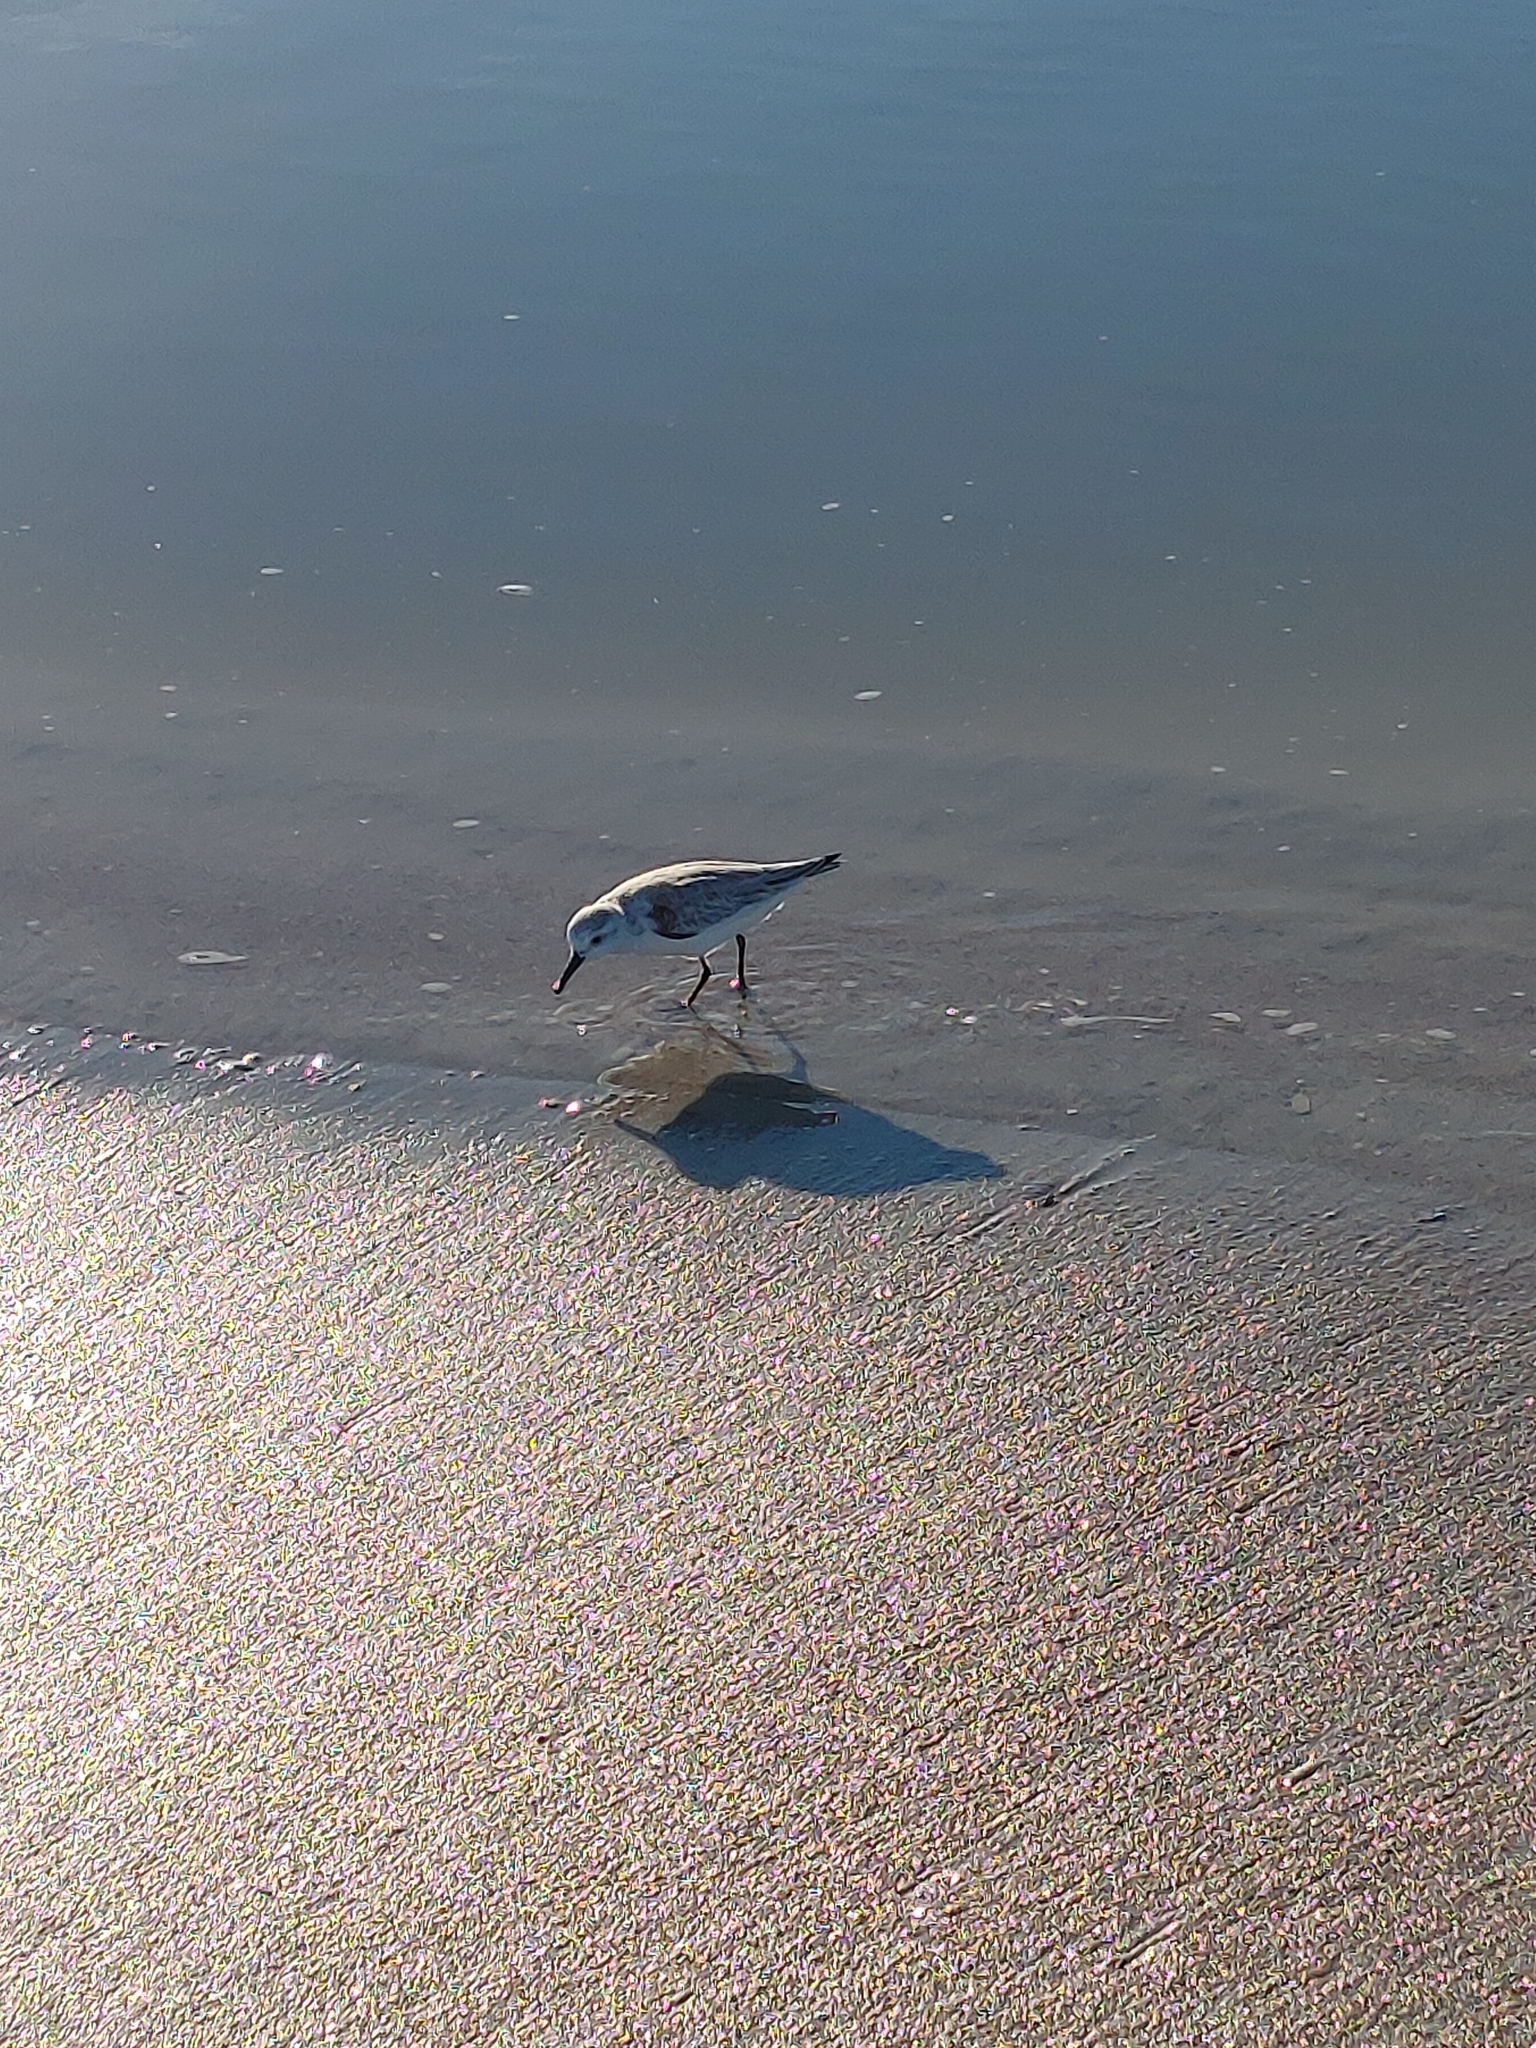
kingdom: Animalia
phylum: Chordata
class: Aves
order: Charadriiformes
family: Scolopacidae
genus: Calidris
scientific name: Calidris alba
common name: Sanderling
